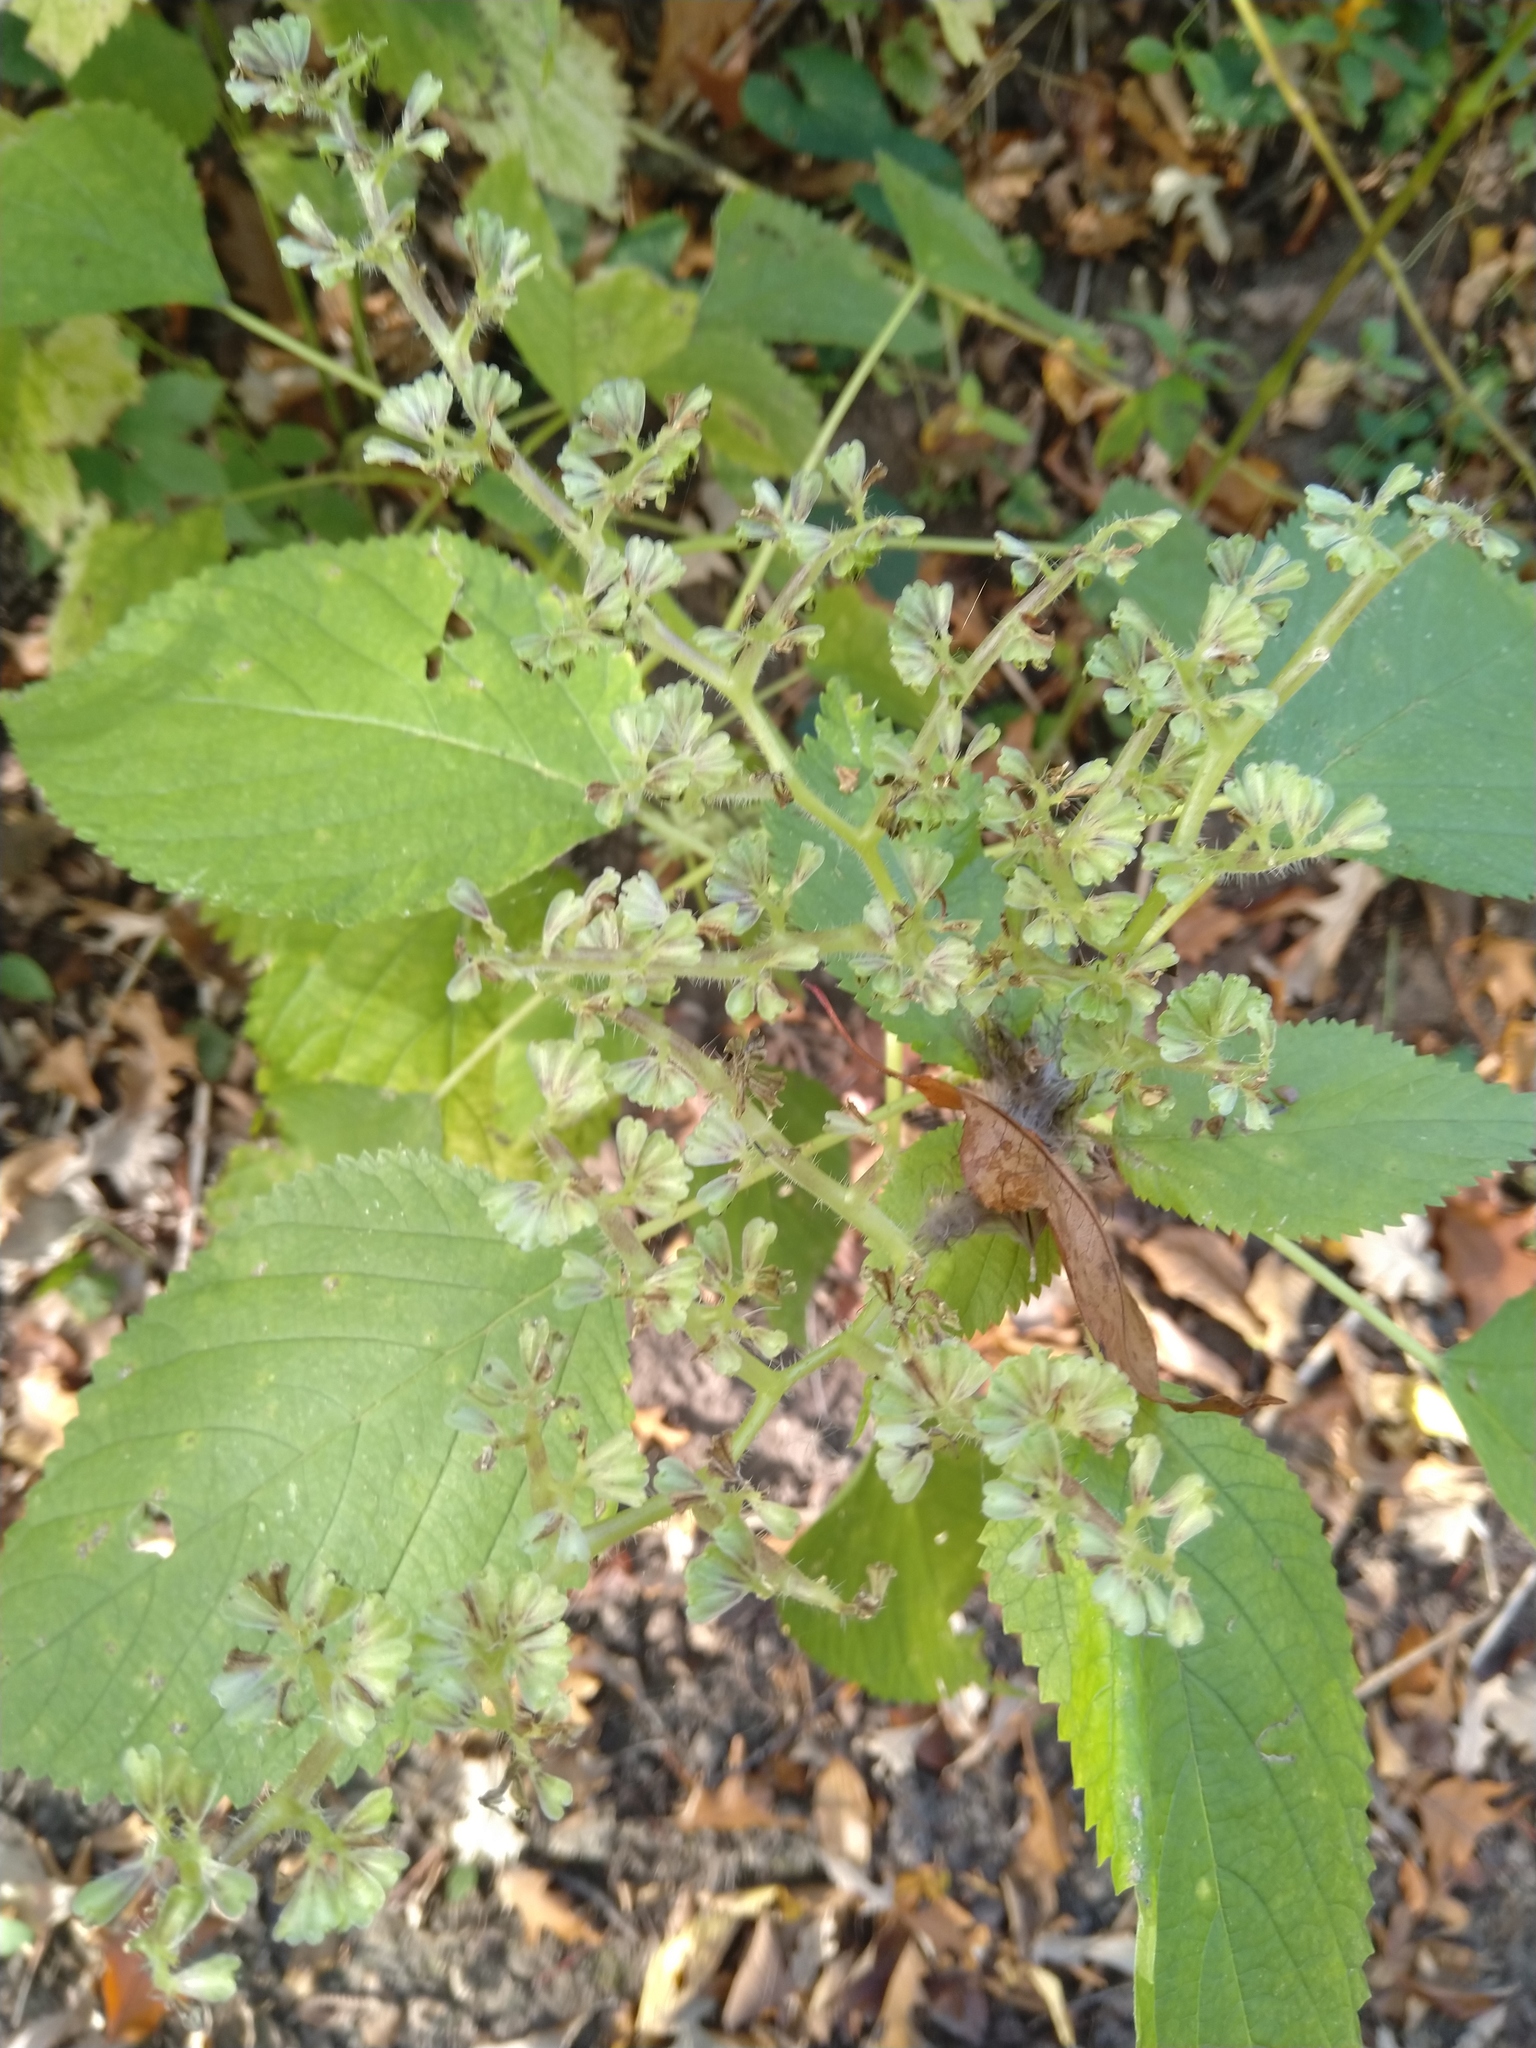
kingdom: Plantae
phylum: Tracheophyta
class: Magnoliopsida
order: Rosales
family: Urticaceae
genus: Laportea
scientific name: Laportea canadensis
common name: Canada nettle
